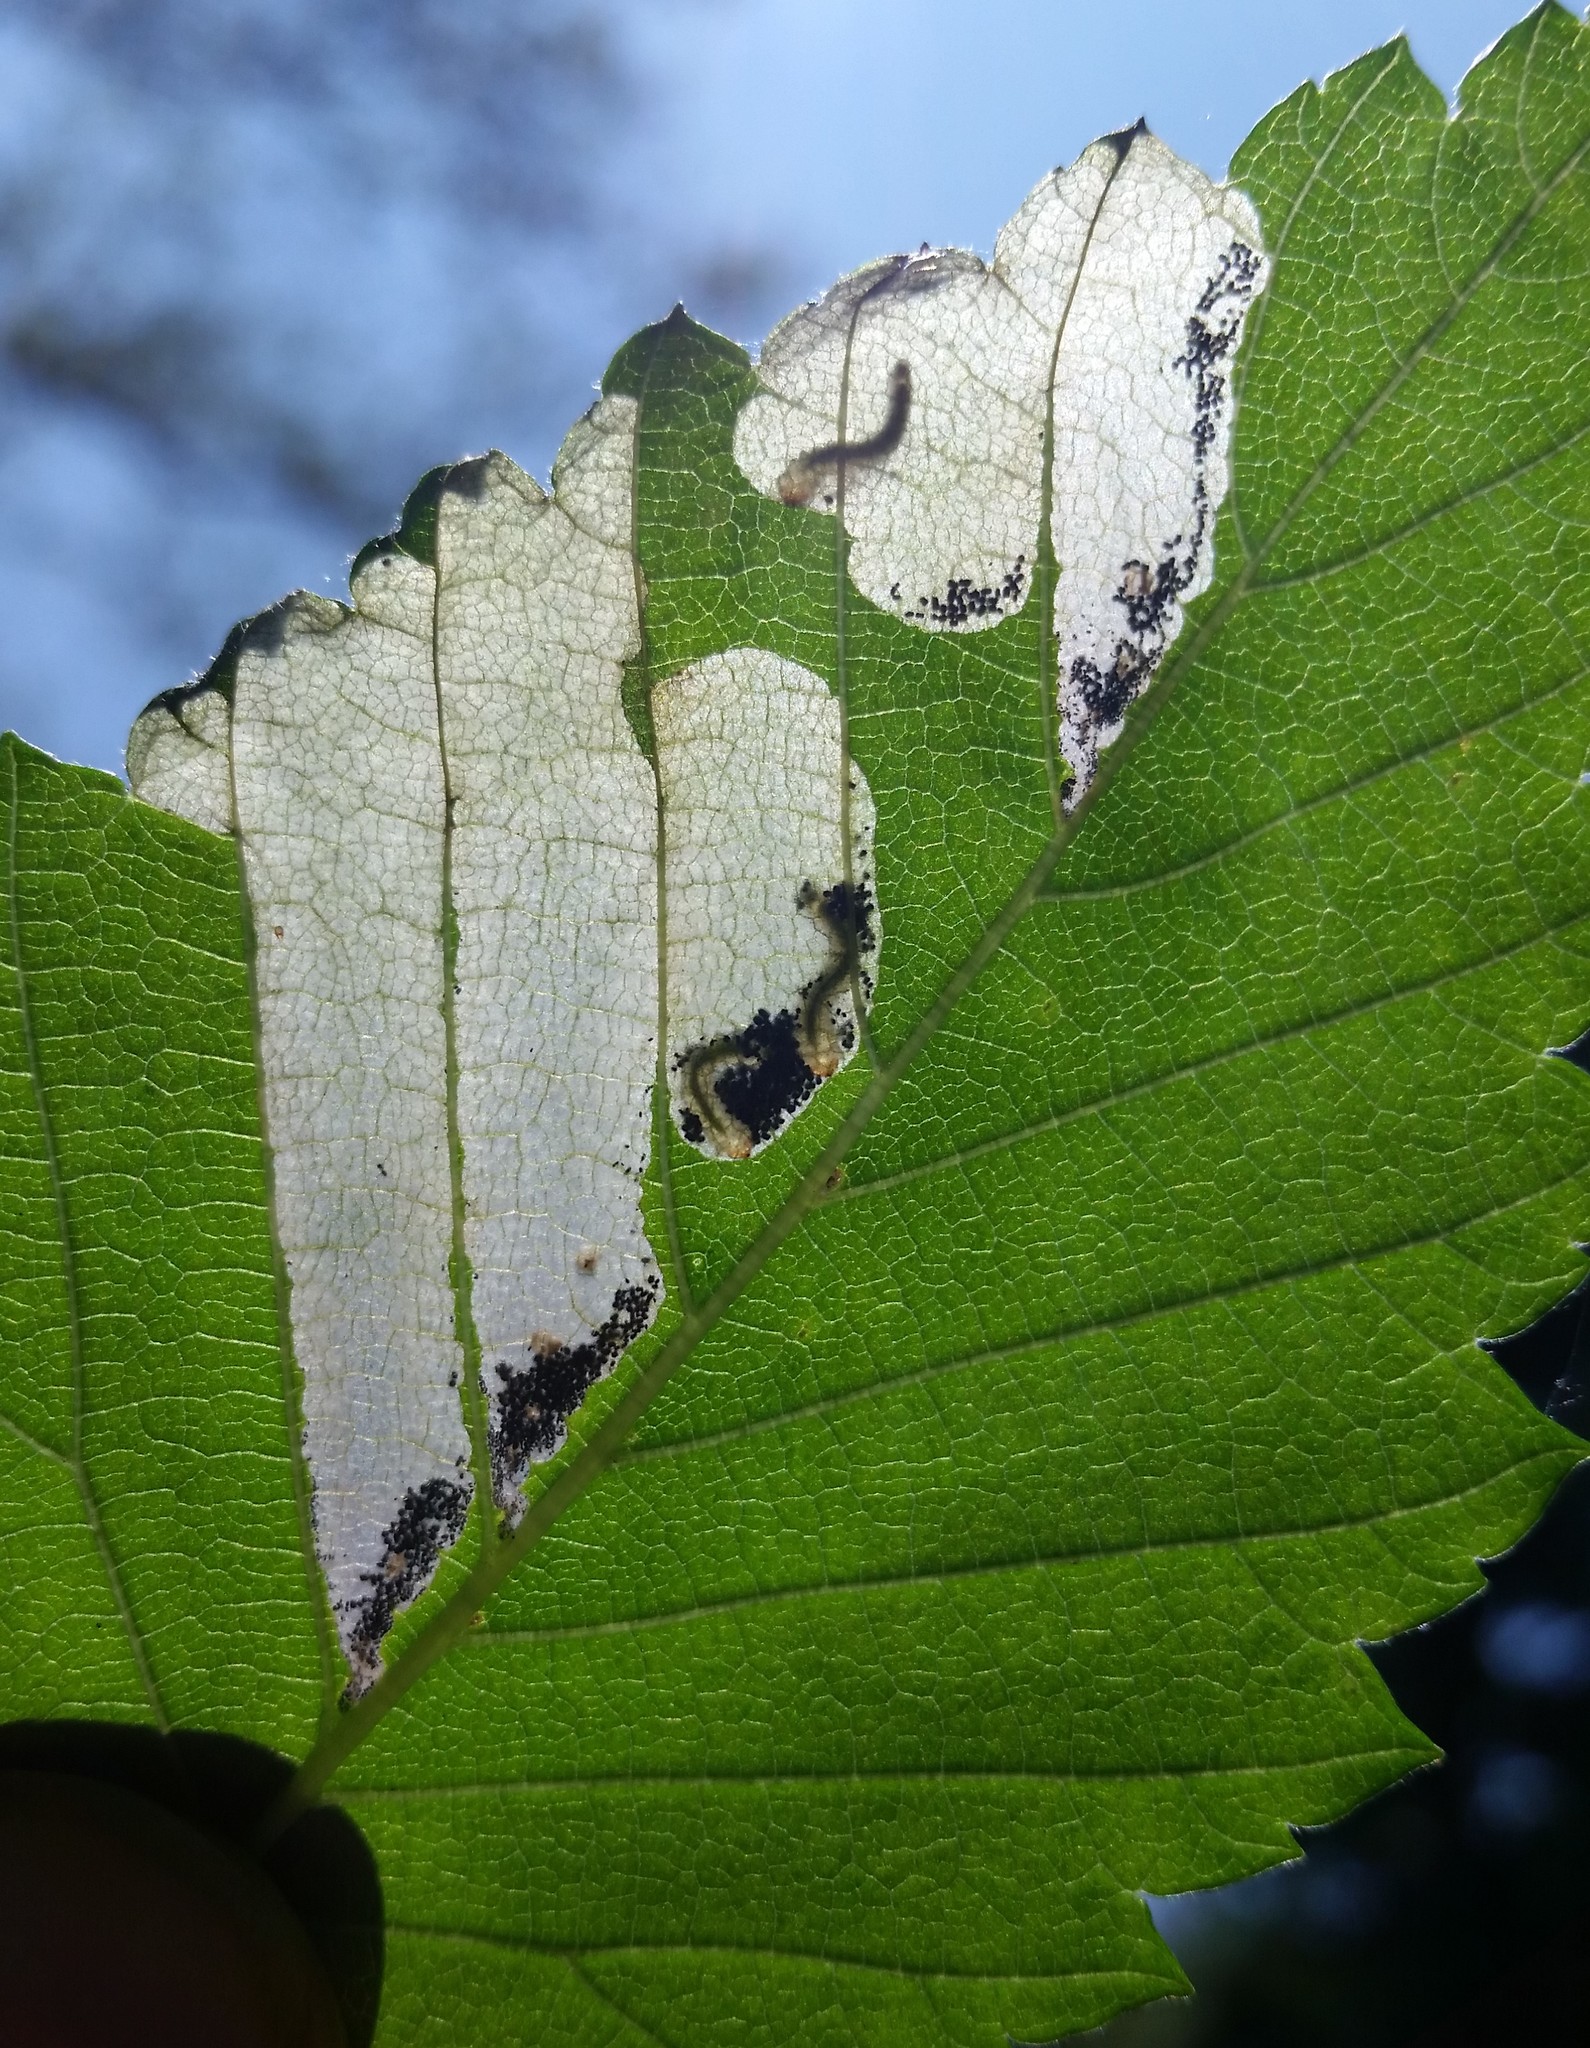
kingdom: Animalia
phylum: Arthropoda
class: Insecta
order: Hymenoptera
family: Tenthredinidae
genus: Fenusa
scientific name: Fenusa ulmi
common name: Elm leafminer
